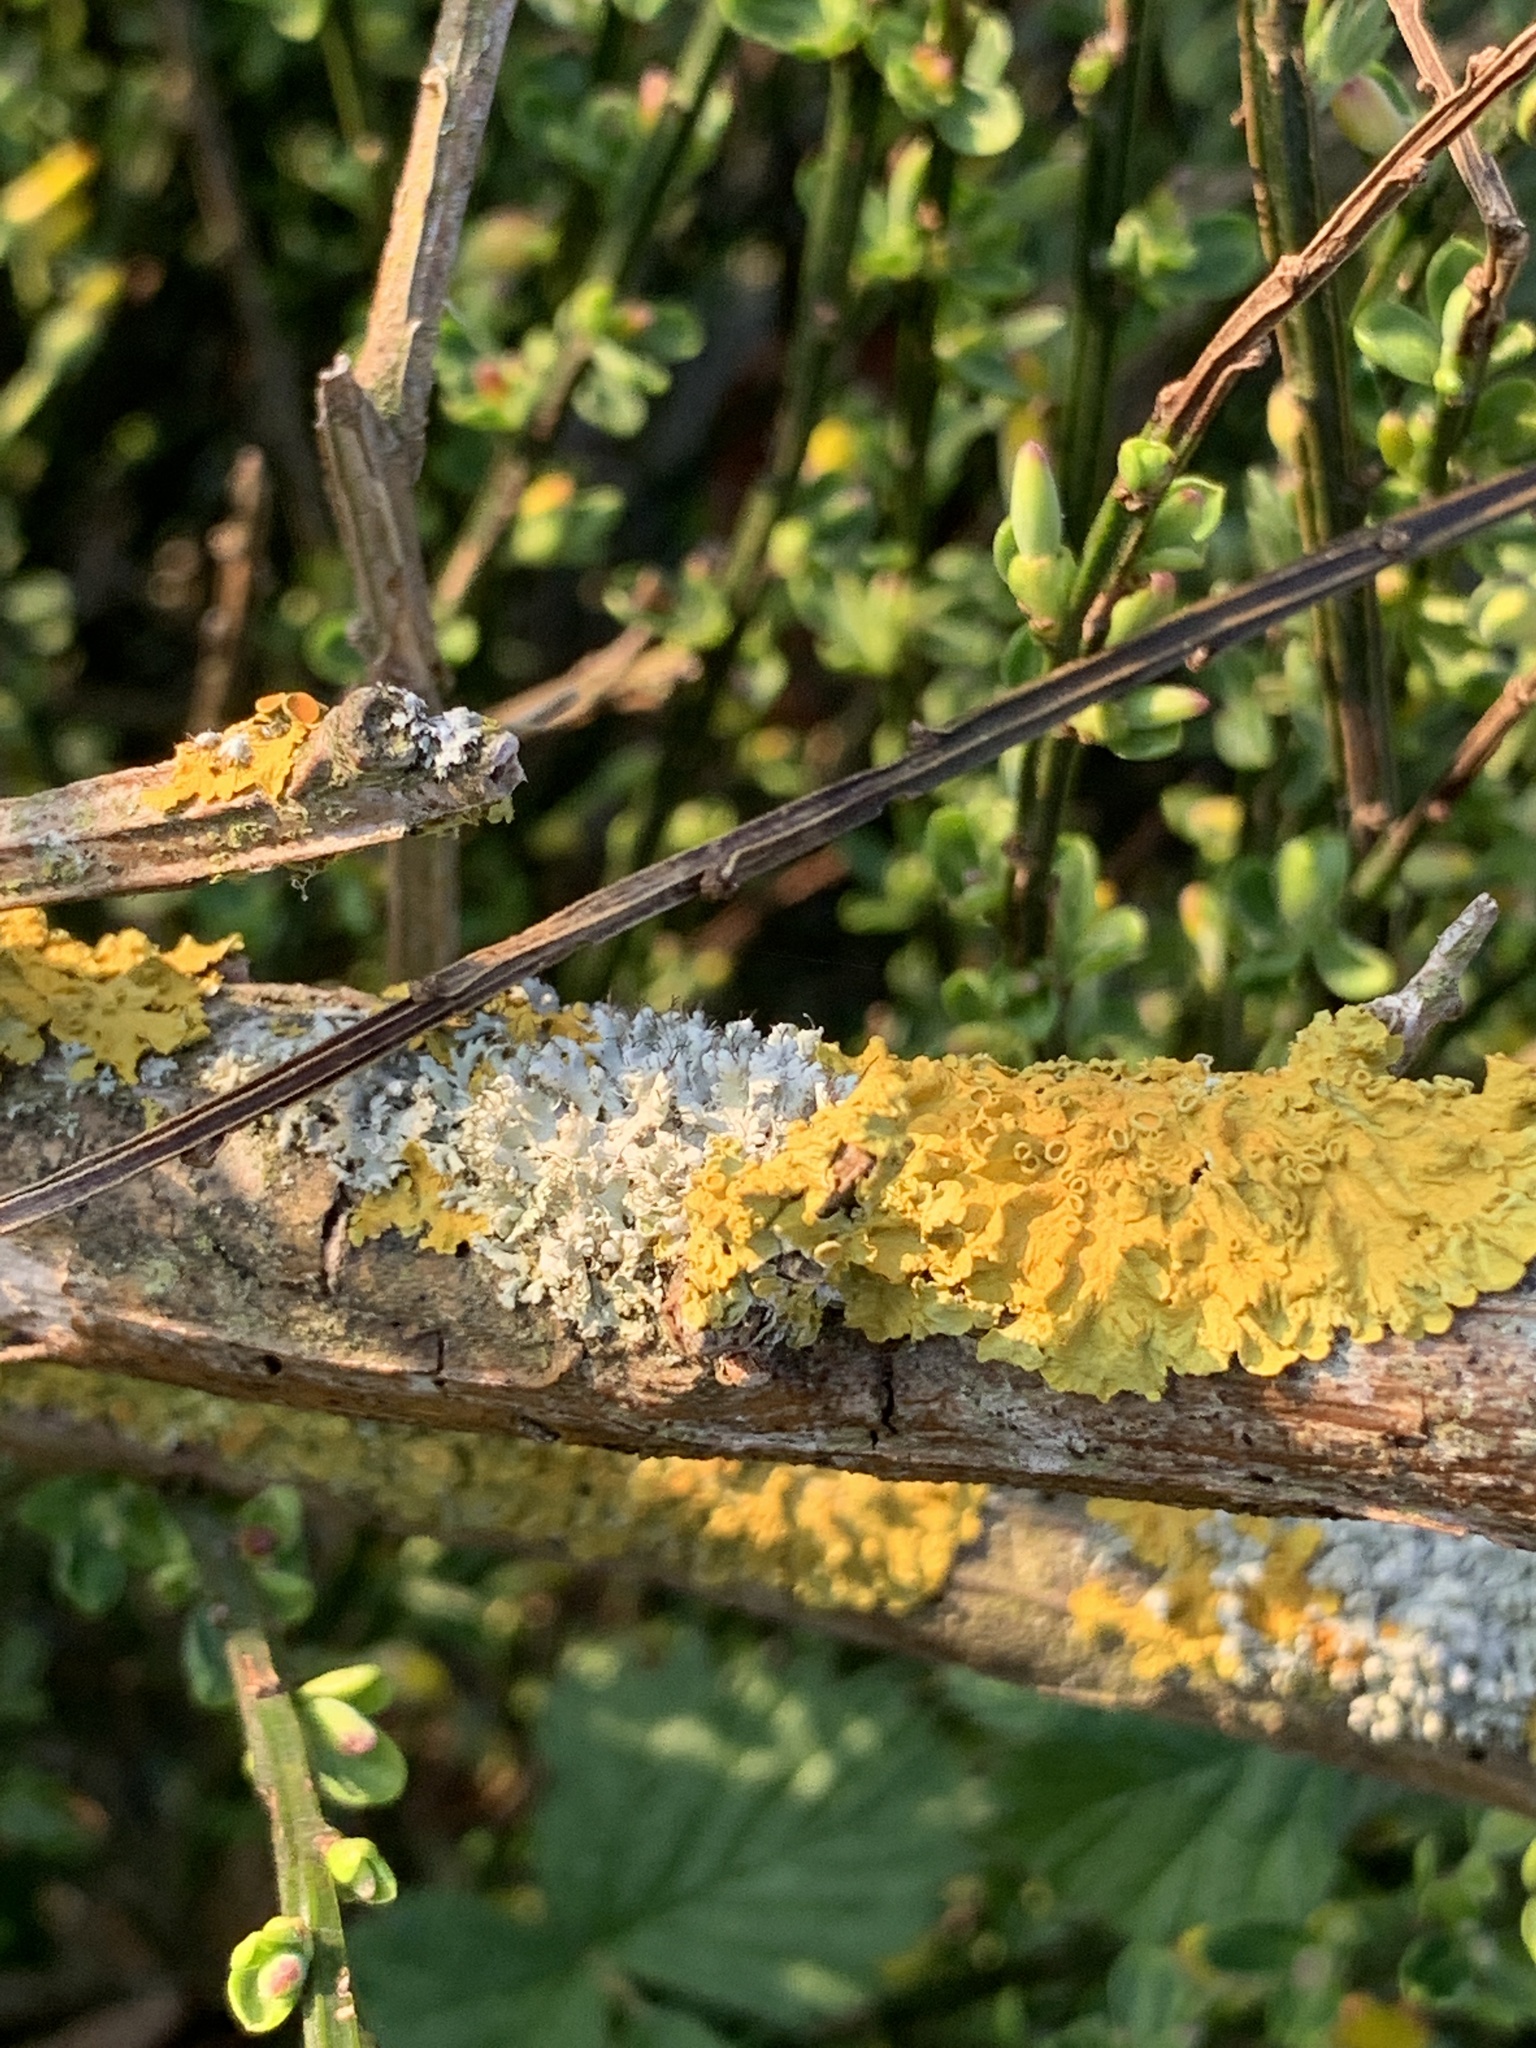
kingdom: Fungi
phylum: Ascomycota
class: Lecanoromycetes
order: Teloschistales
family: Teloschistaceae
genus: Xanthoria
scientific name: Xanthoria parietina
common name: Common orange lichen
